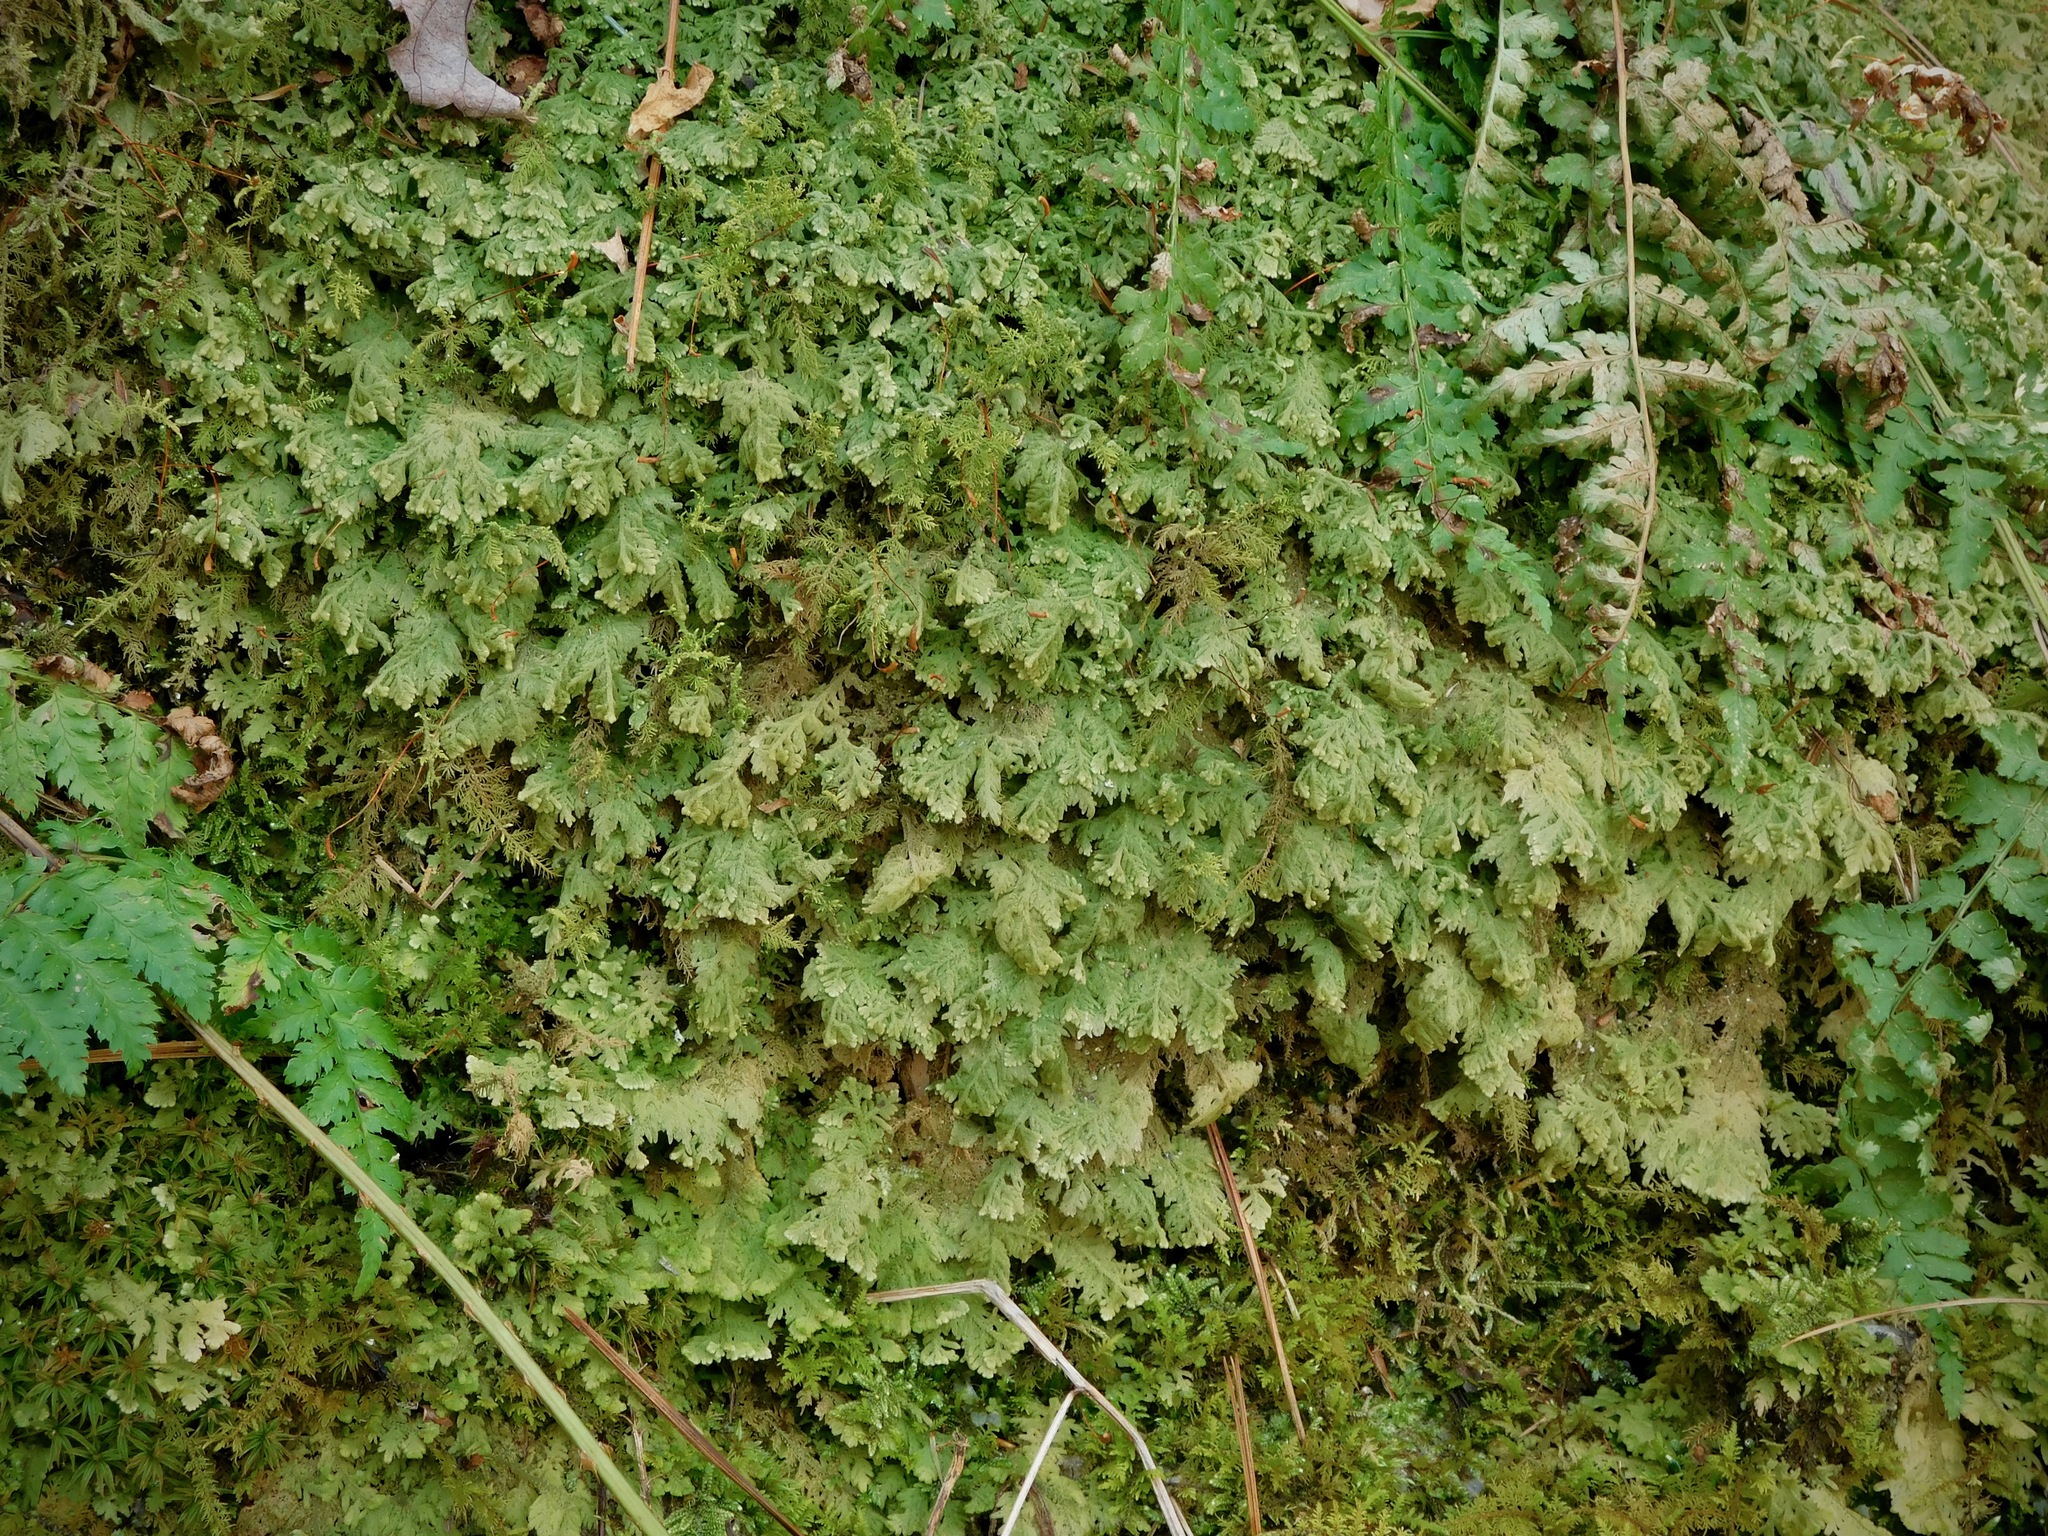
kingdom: Plantae
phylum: Marchantiophyta
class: Jungermanniopsida
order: Jungermanniales
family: Trichocoleaceae
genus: Trichocolea
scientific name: Trichocolea tomentella
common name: Woolly liverwort
